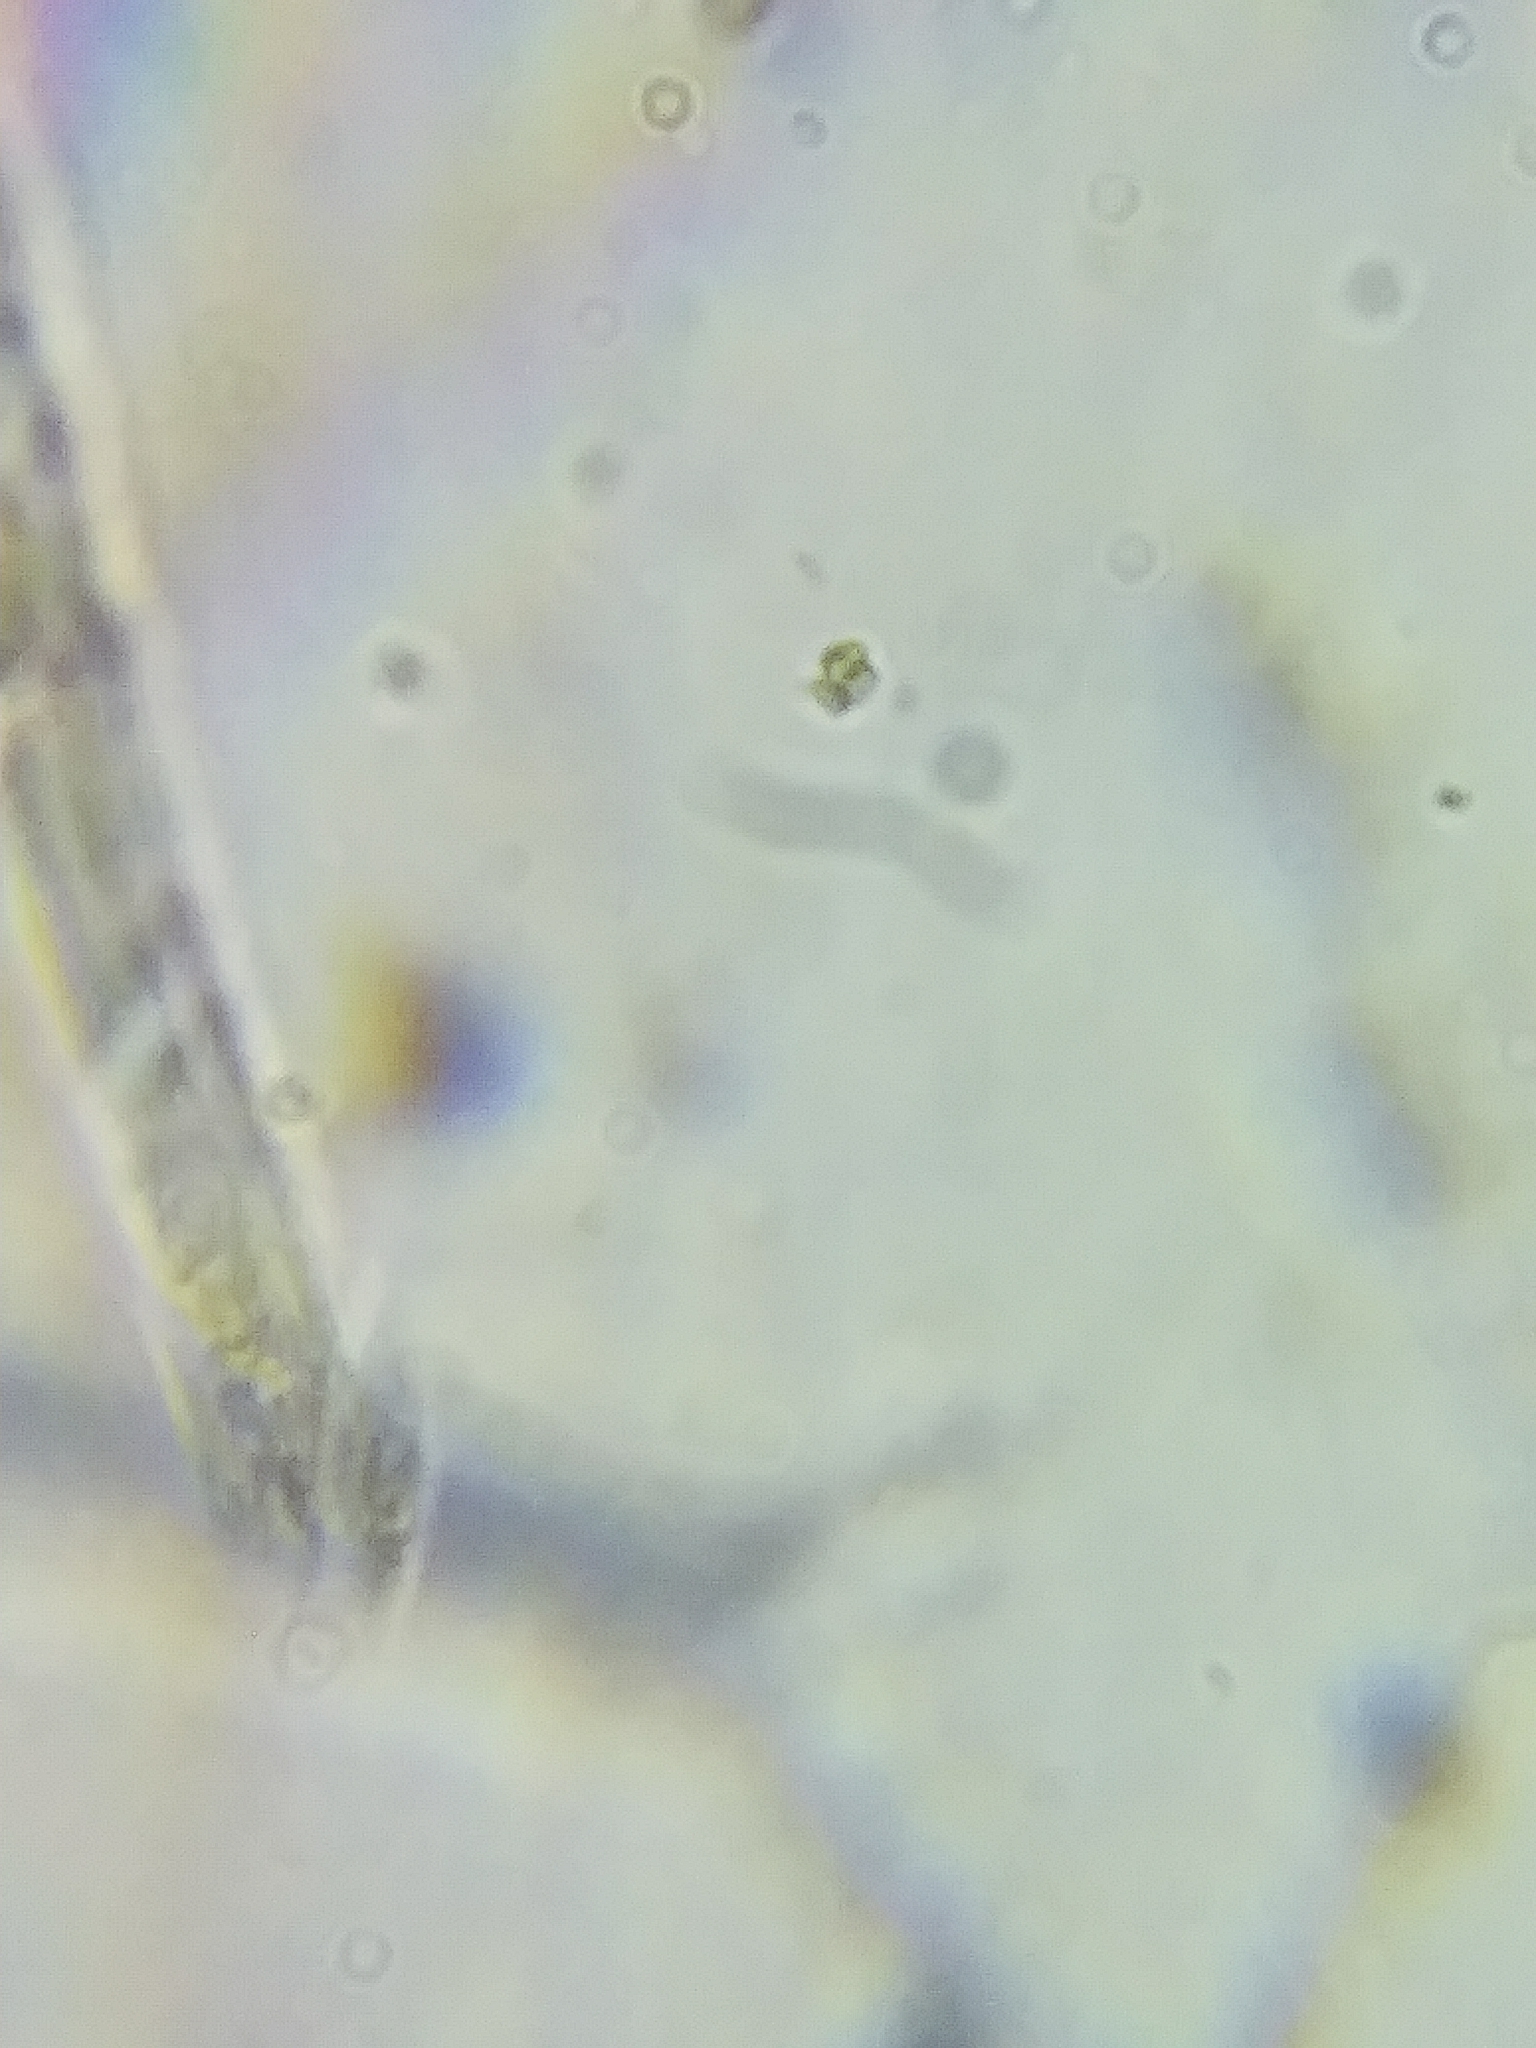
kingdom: Fungi
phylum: Basidiomycota
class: Agaricomycetes
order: Geastrales
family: Geastraceae
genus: Geastrum
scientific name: Geastrum triplex
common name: Collared earthstar
